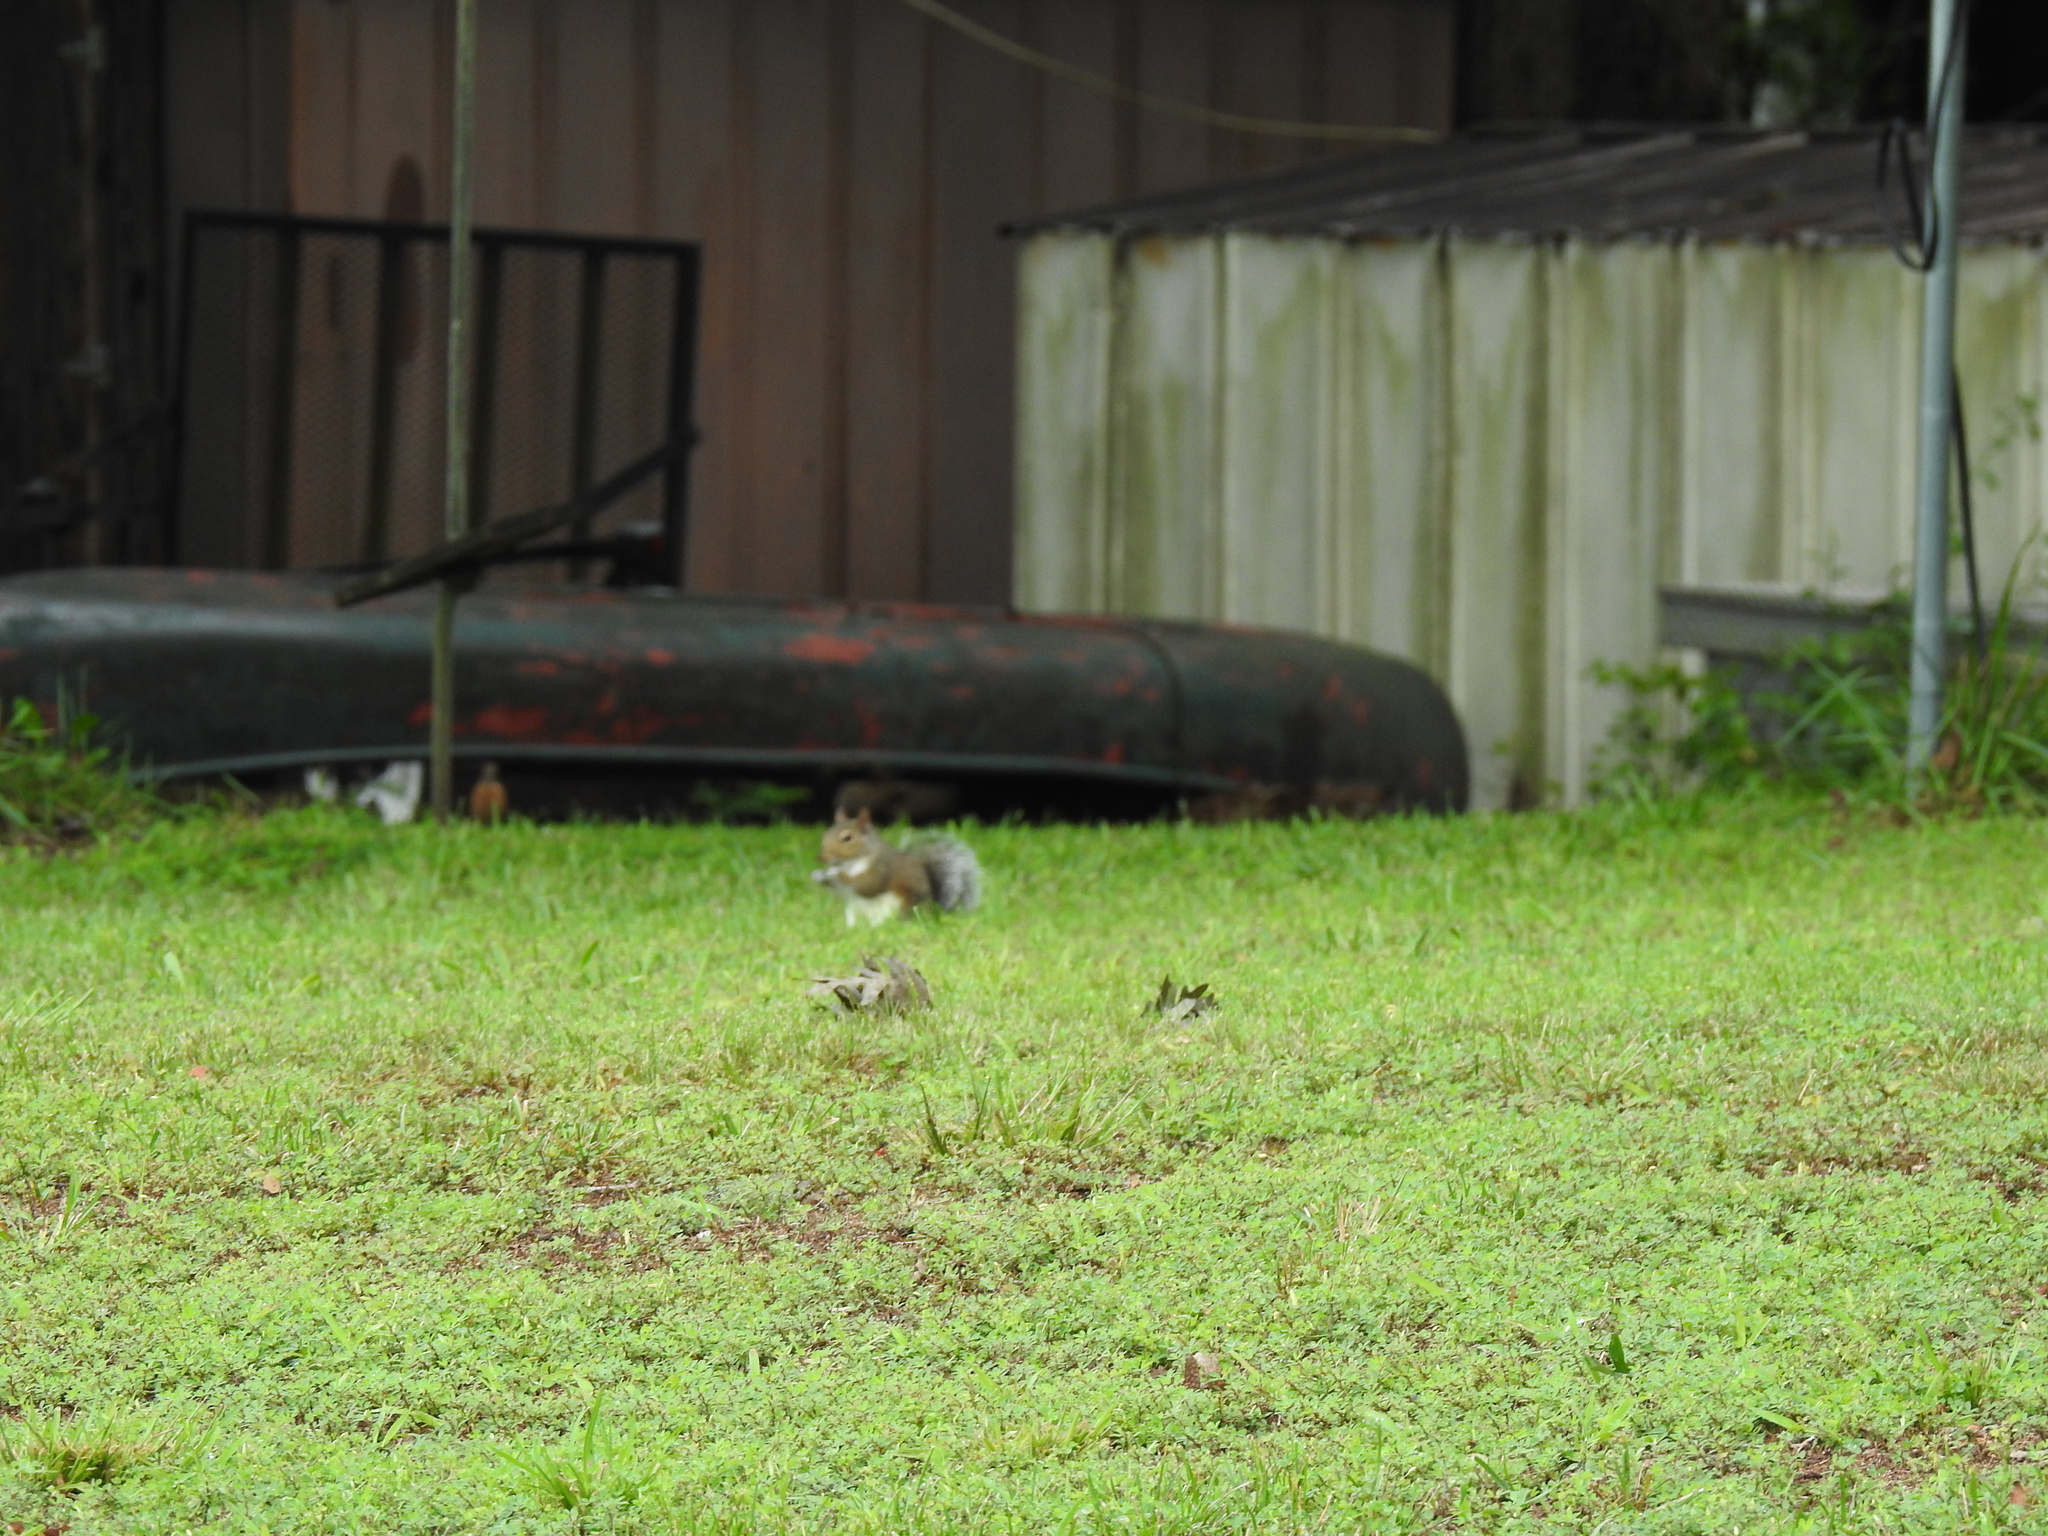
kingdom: Animalia
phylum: Chordata
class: Mammalia
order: Rodentia
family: Sciuridae
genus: Sciurus
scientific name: Sciurus carolinensis
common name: Eastern gray squirrel
